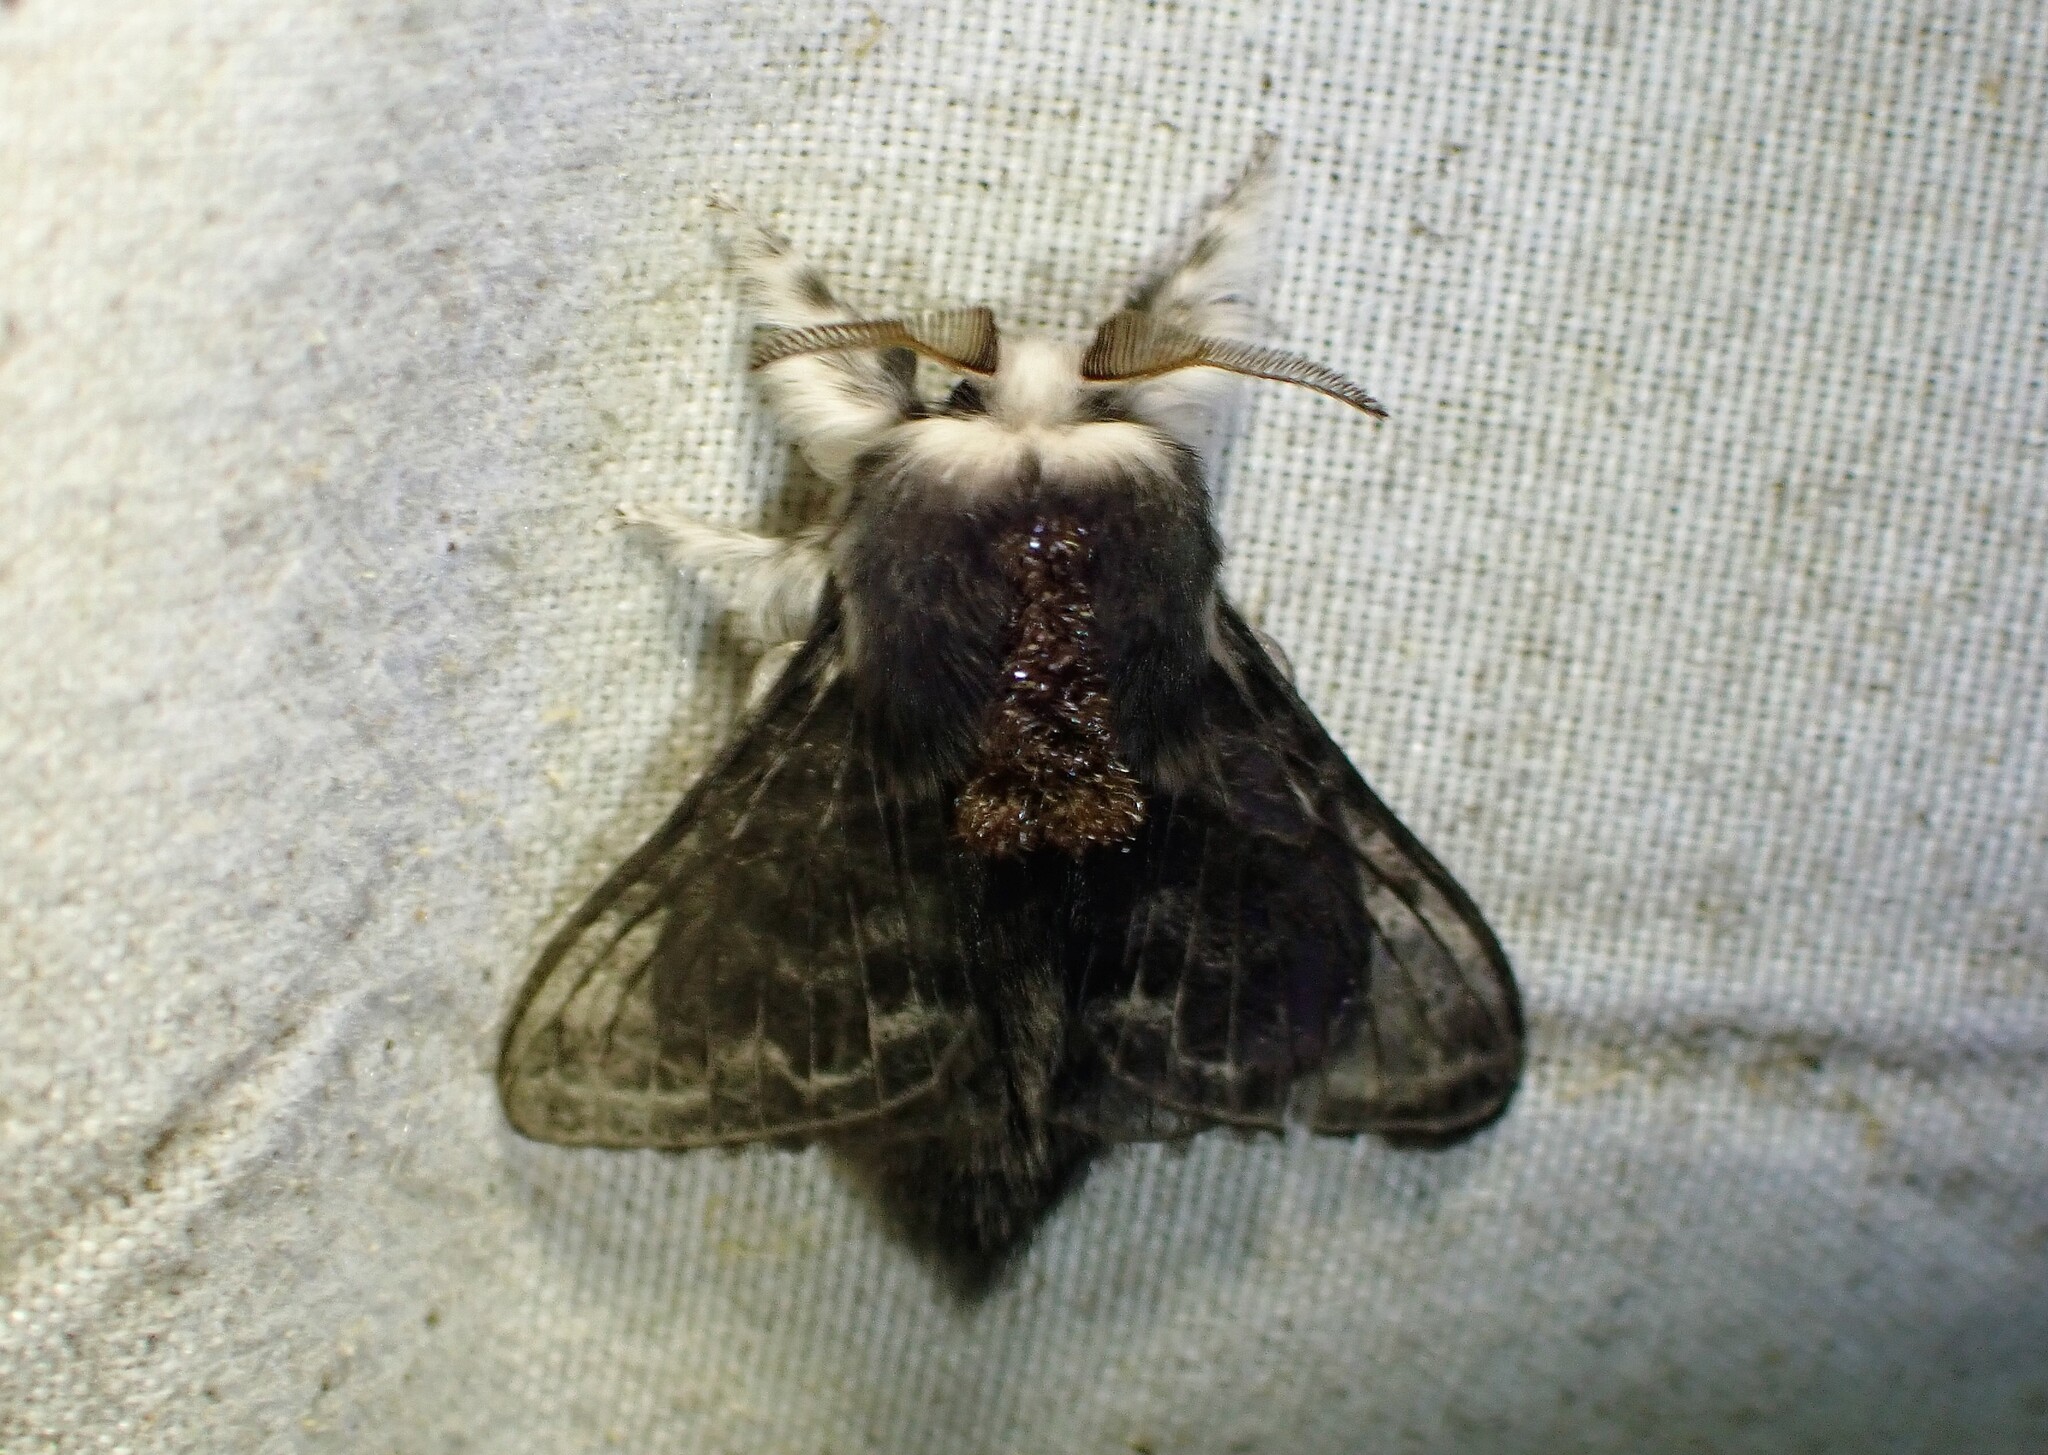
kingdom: Animalia
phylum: Arthropoda
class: Insecta
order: Lepidoptera
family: Lasiocampidae
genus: Tolype
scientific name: Tolype laricis
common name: Larch tolype moth
